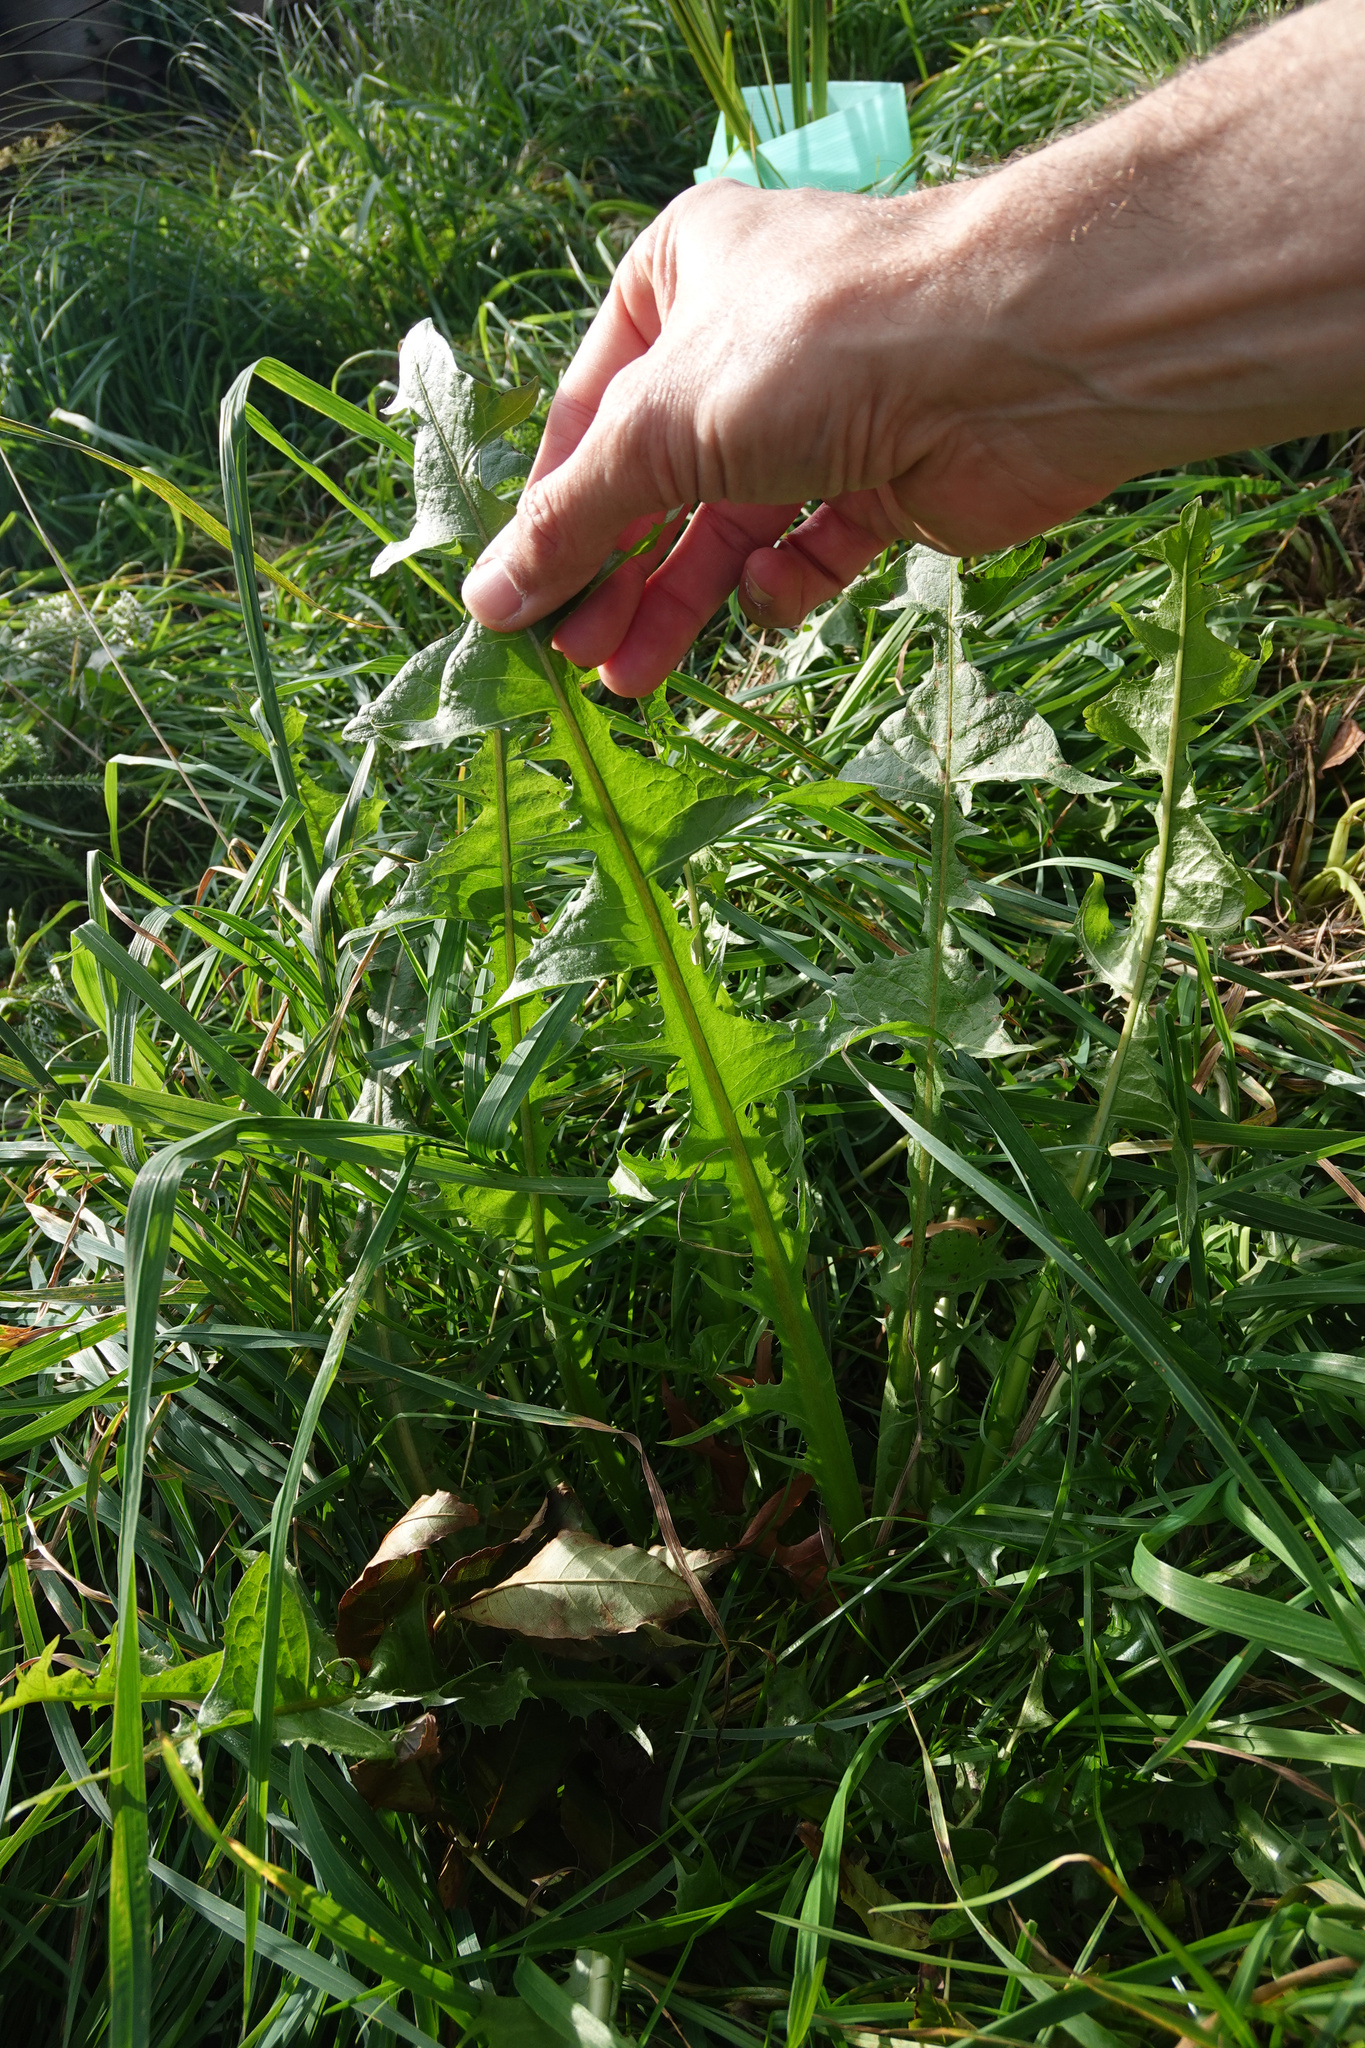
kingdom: Plantae
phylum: Tracheophyta
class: Magnoliopsida
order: Asterales
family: Asteraceae
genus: Taraxacum
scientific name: Taraxacum officinale
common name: Common dandelion
